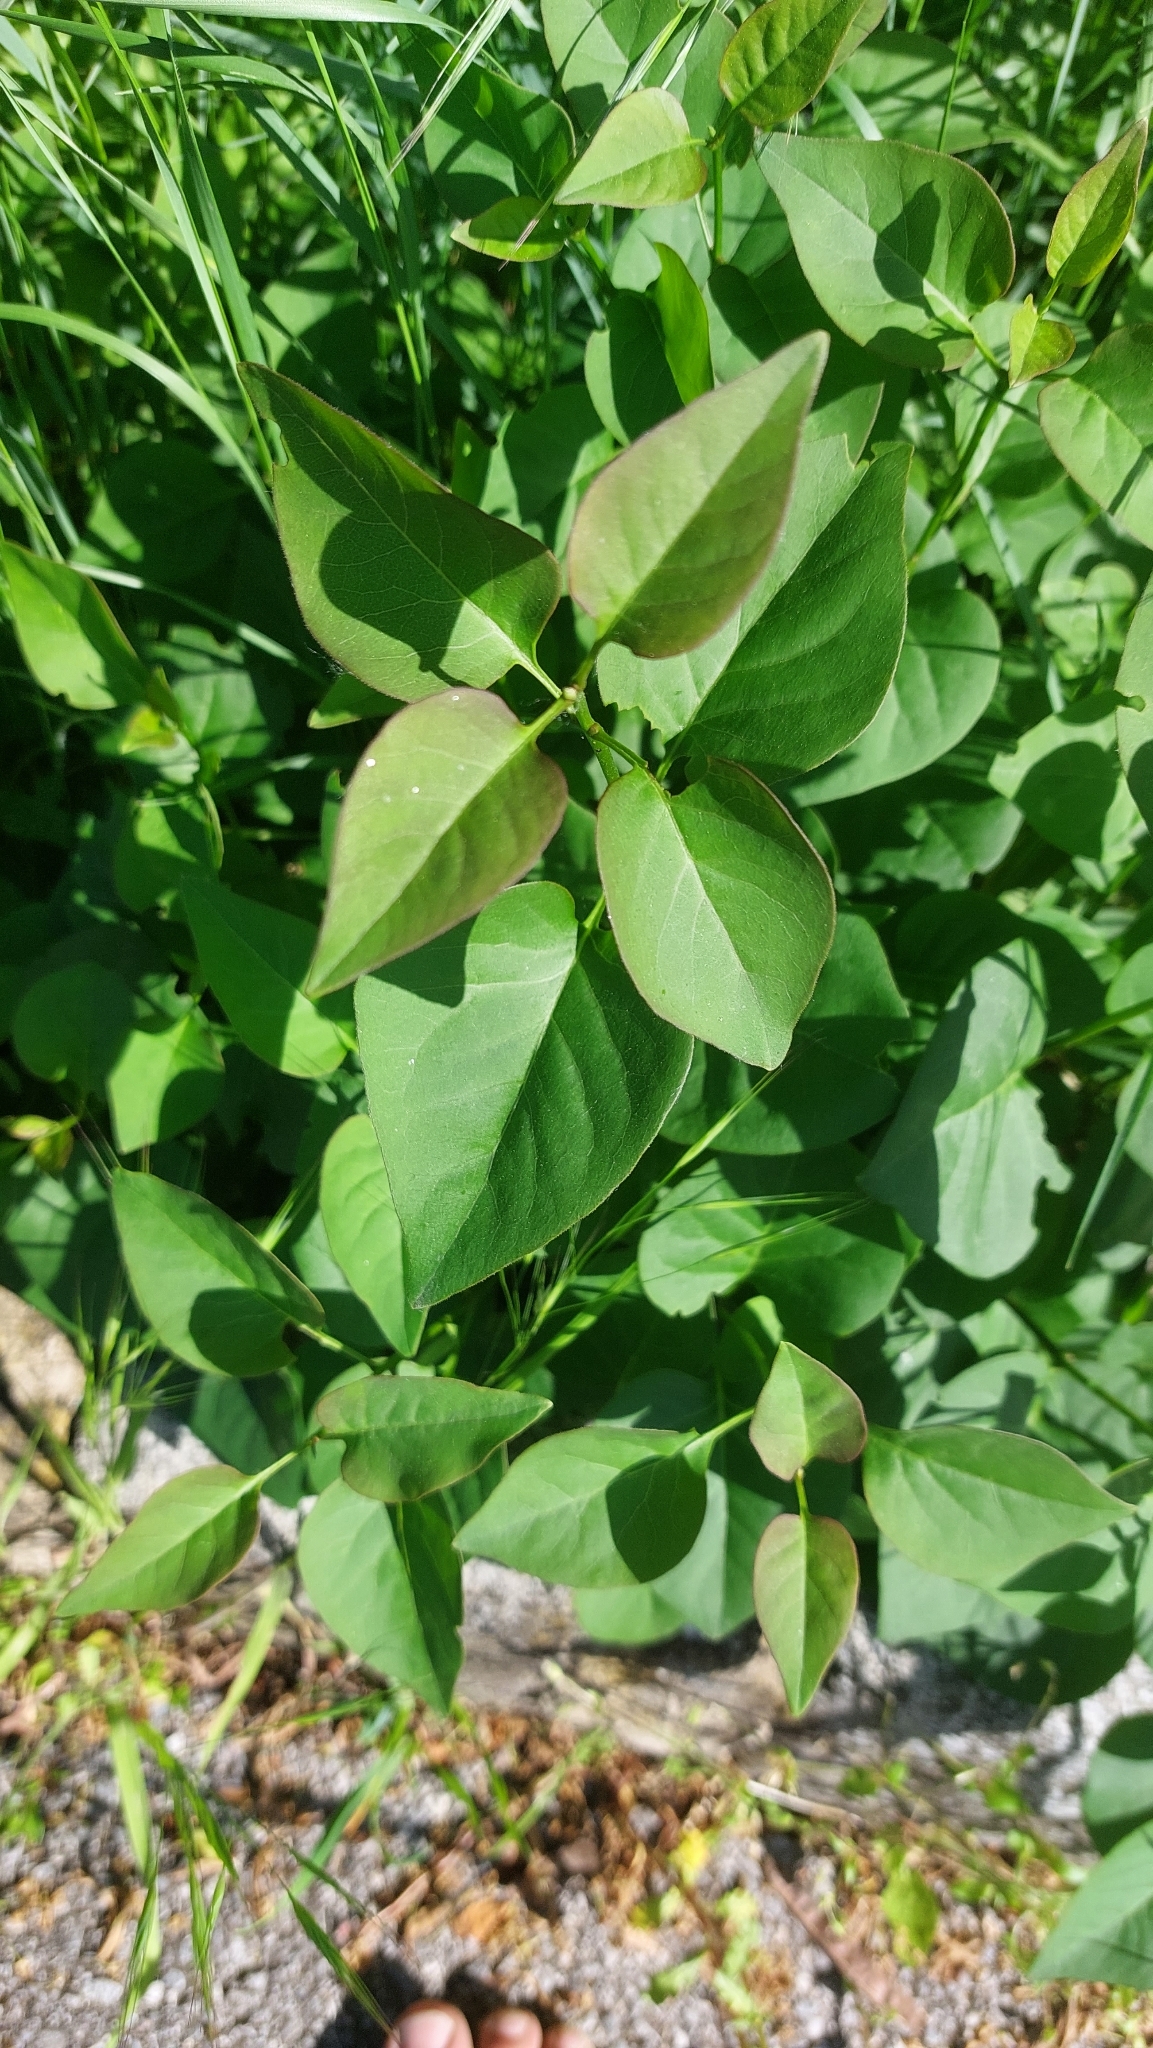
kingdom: Plantae
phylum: Tracheophyta
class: Magnoliopsida
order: Lamiales
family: Oleaceae
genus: Syringa
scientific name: Syringa vulgaris
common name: Common lilac
